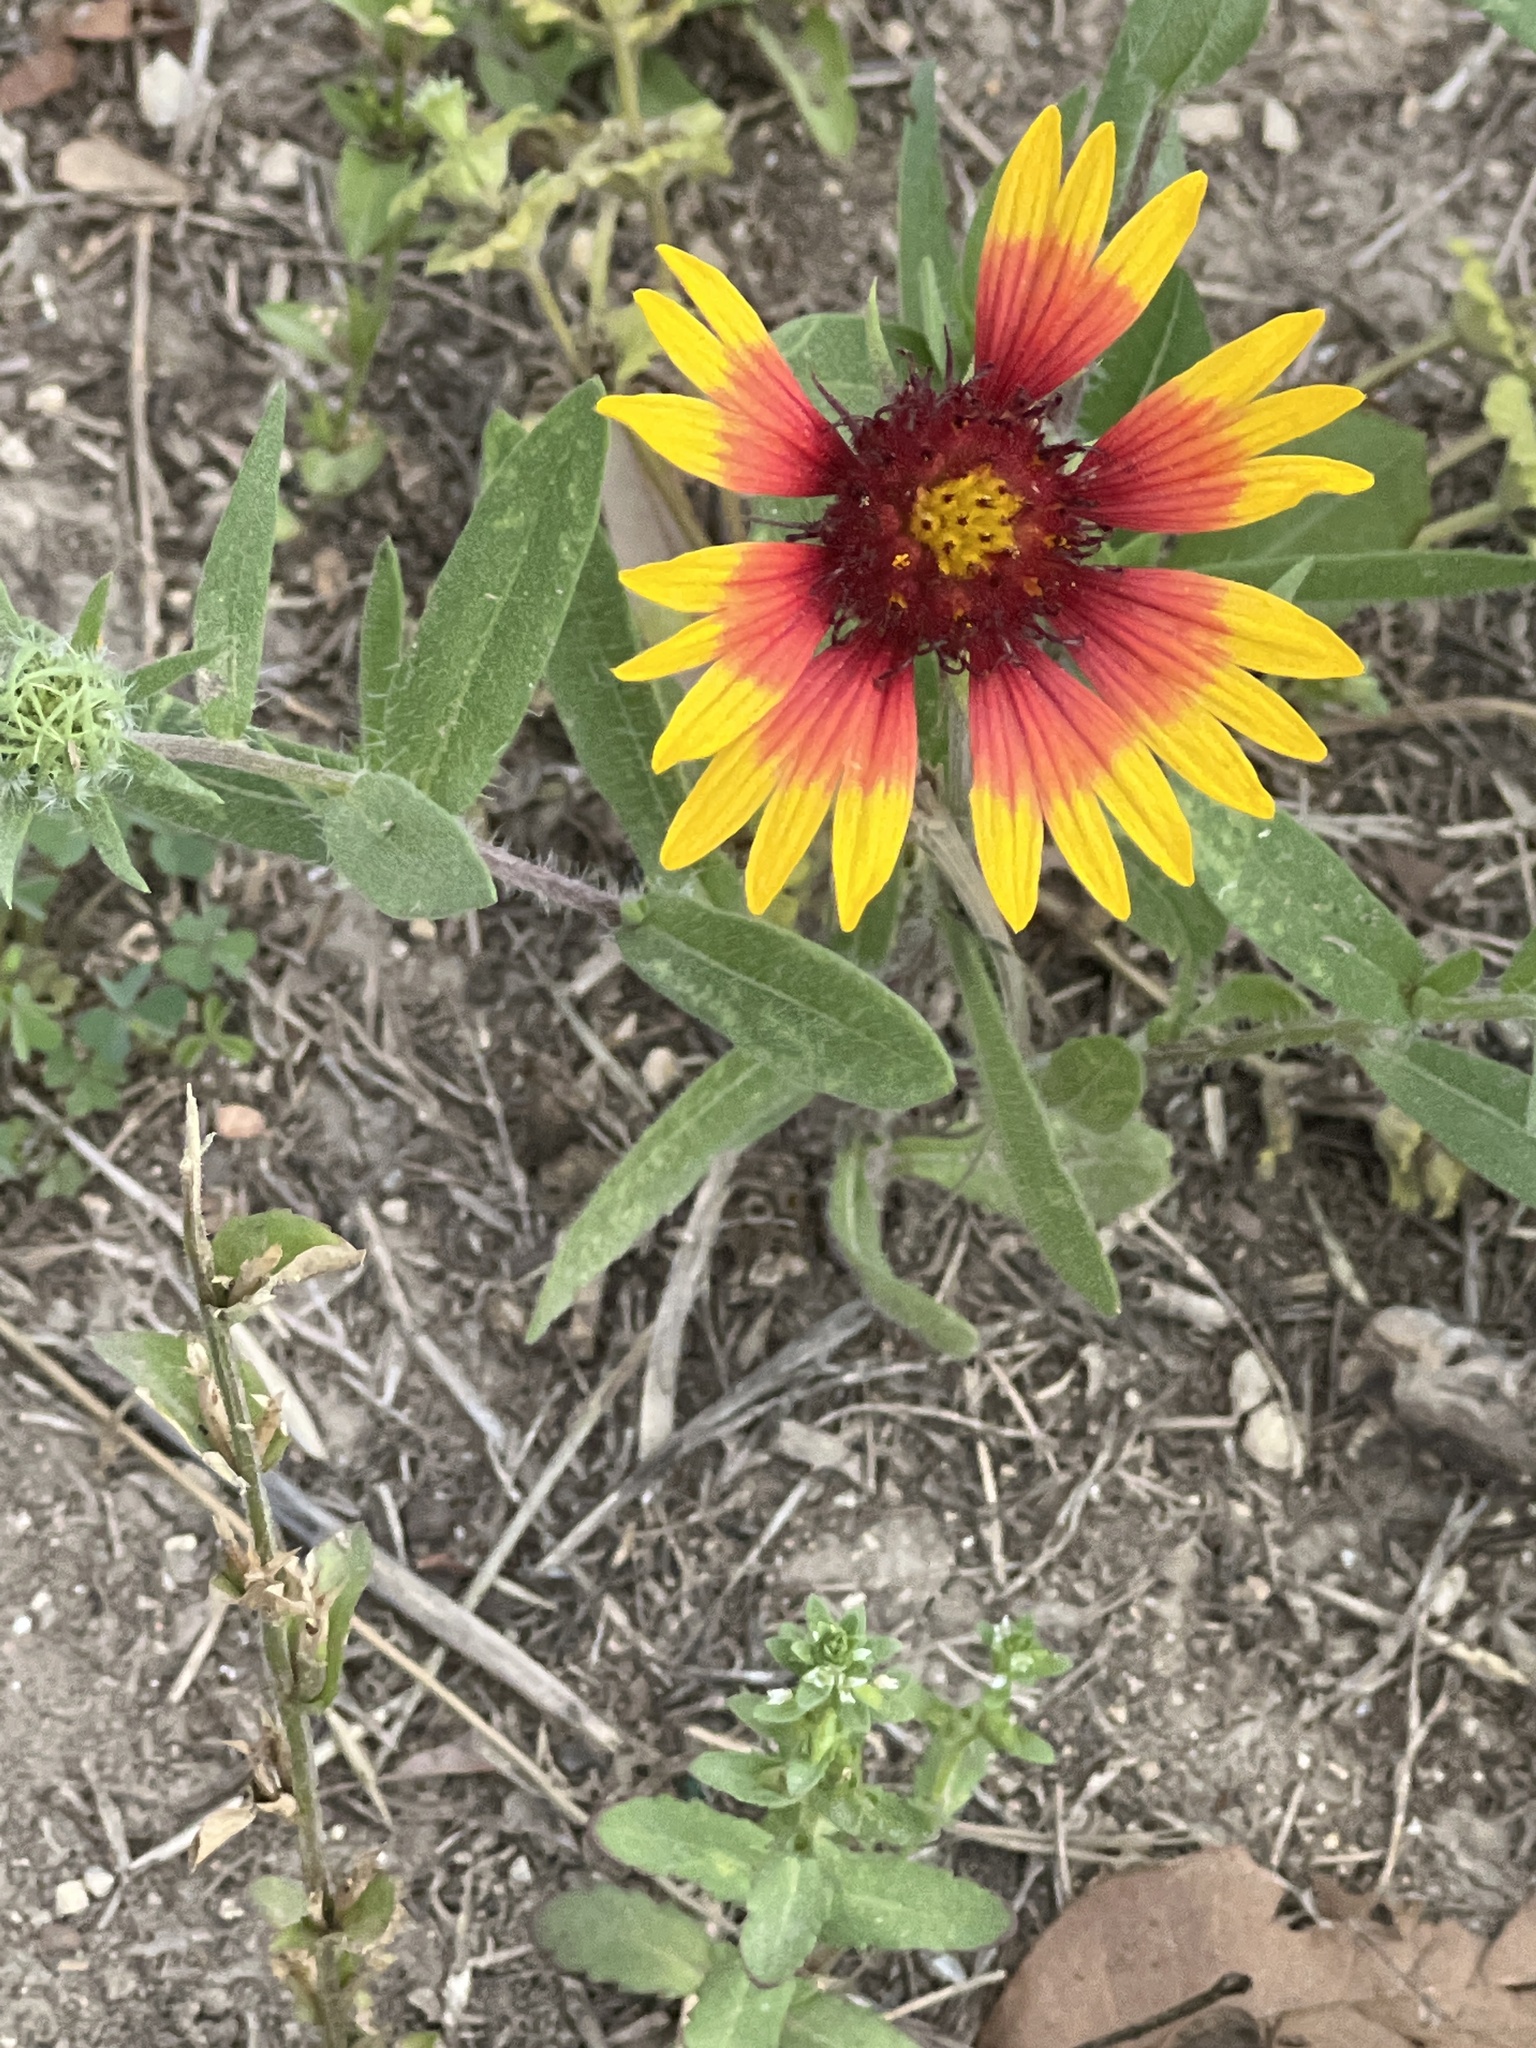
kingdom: Plantae
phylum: Tracheophyta
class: Magnoliopsida
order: Asterales
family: Asteraceae
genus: Gaillardia
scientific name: Gaillardia pulchella
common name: Firewheel
